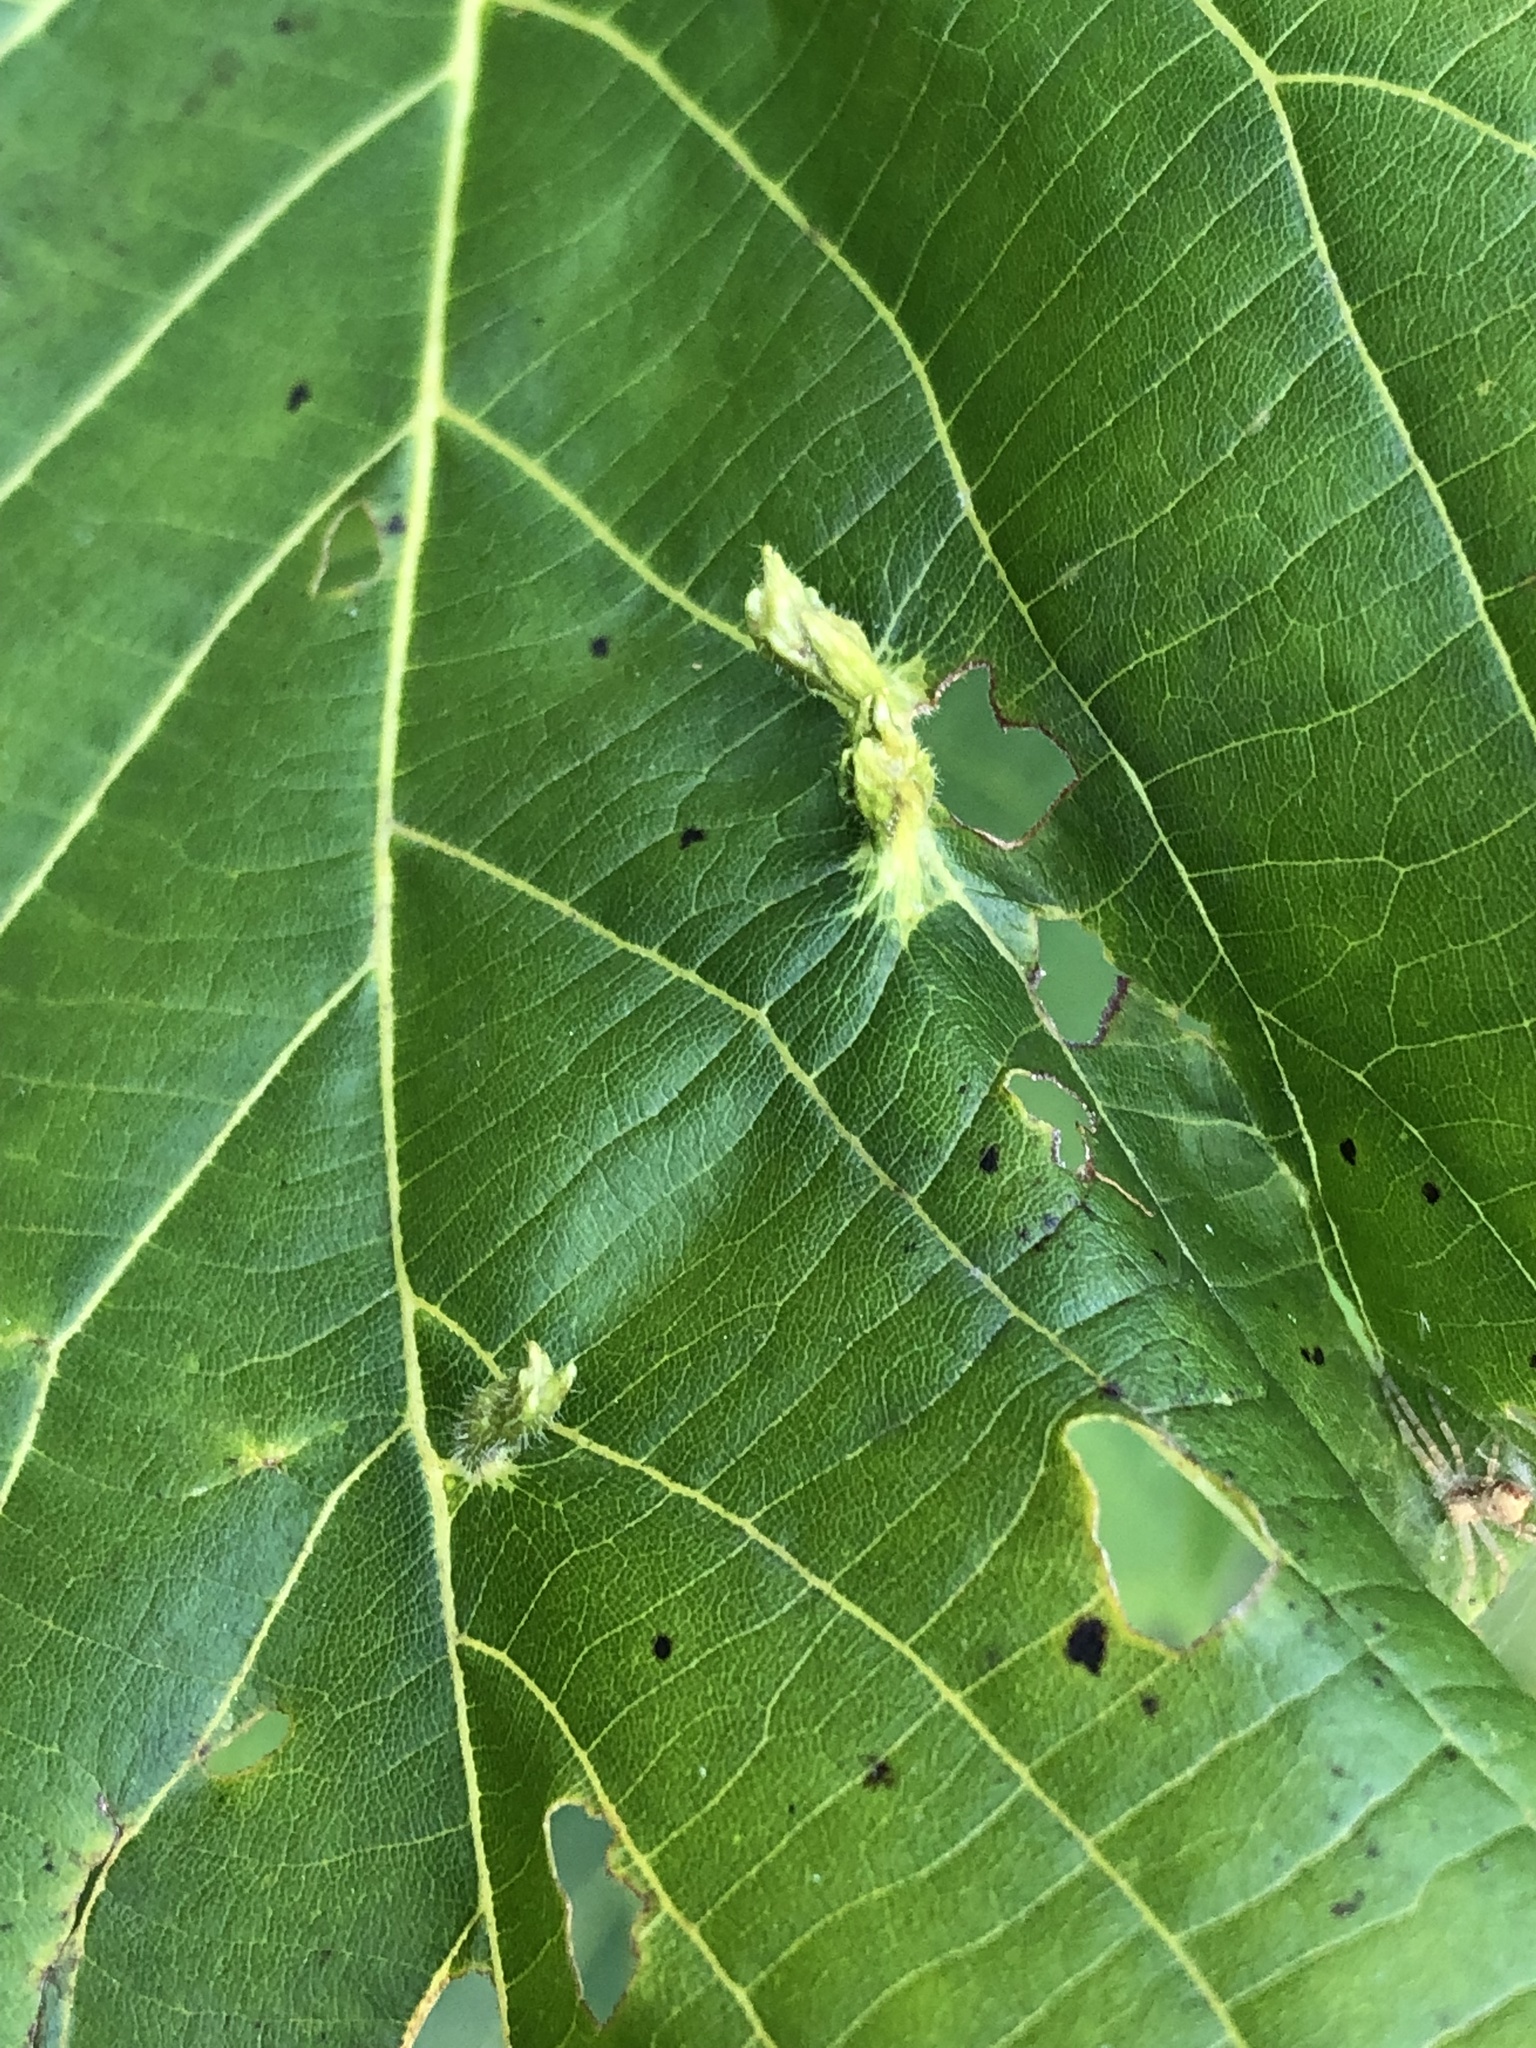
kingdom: Animalia
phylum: Arthropoda
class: Arachnida
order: Trombidiformes
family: Eriophyidae
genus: Eriophyes
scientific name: Eriophyes tiliae
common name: Red nail gall mite
